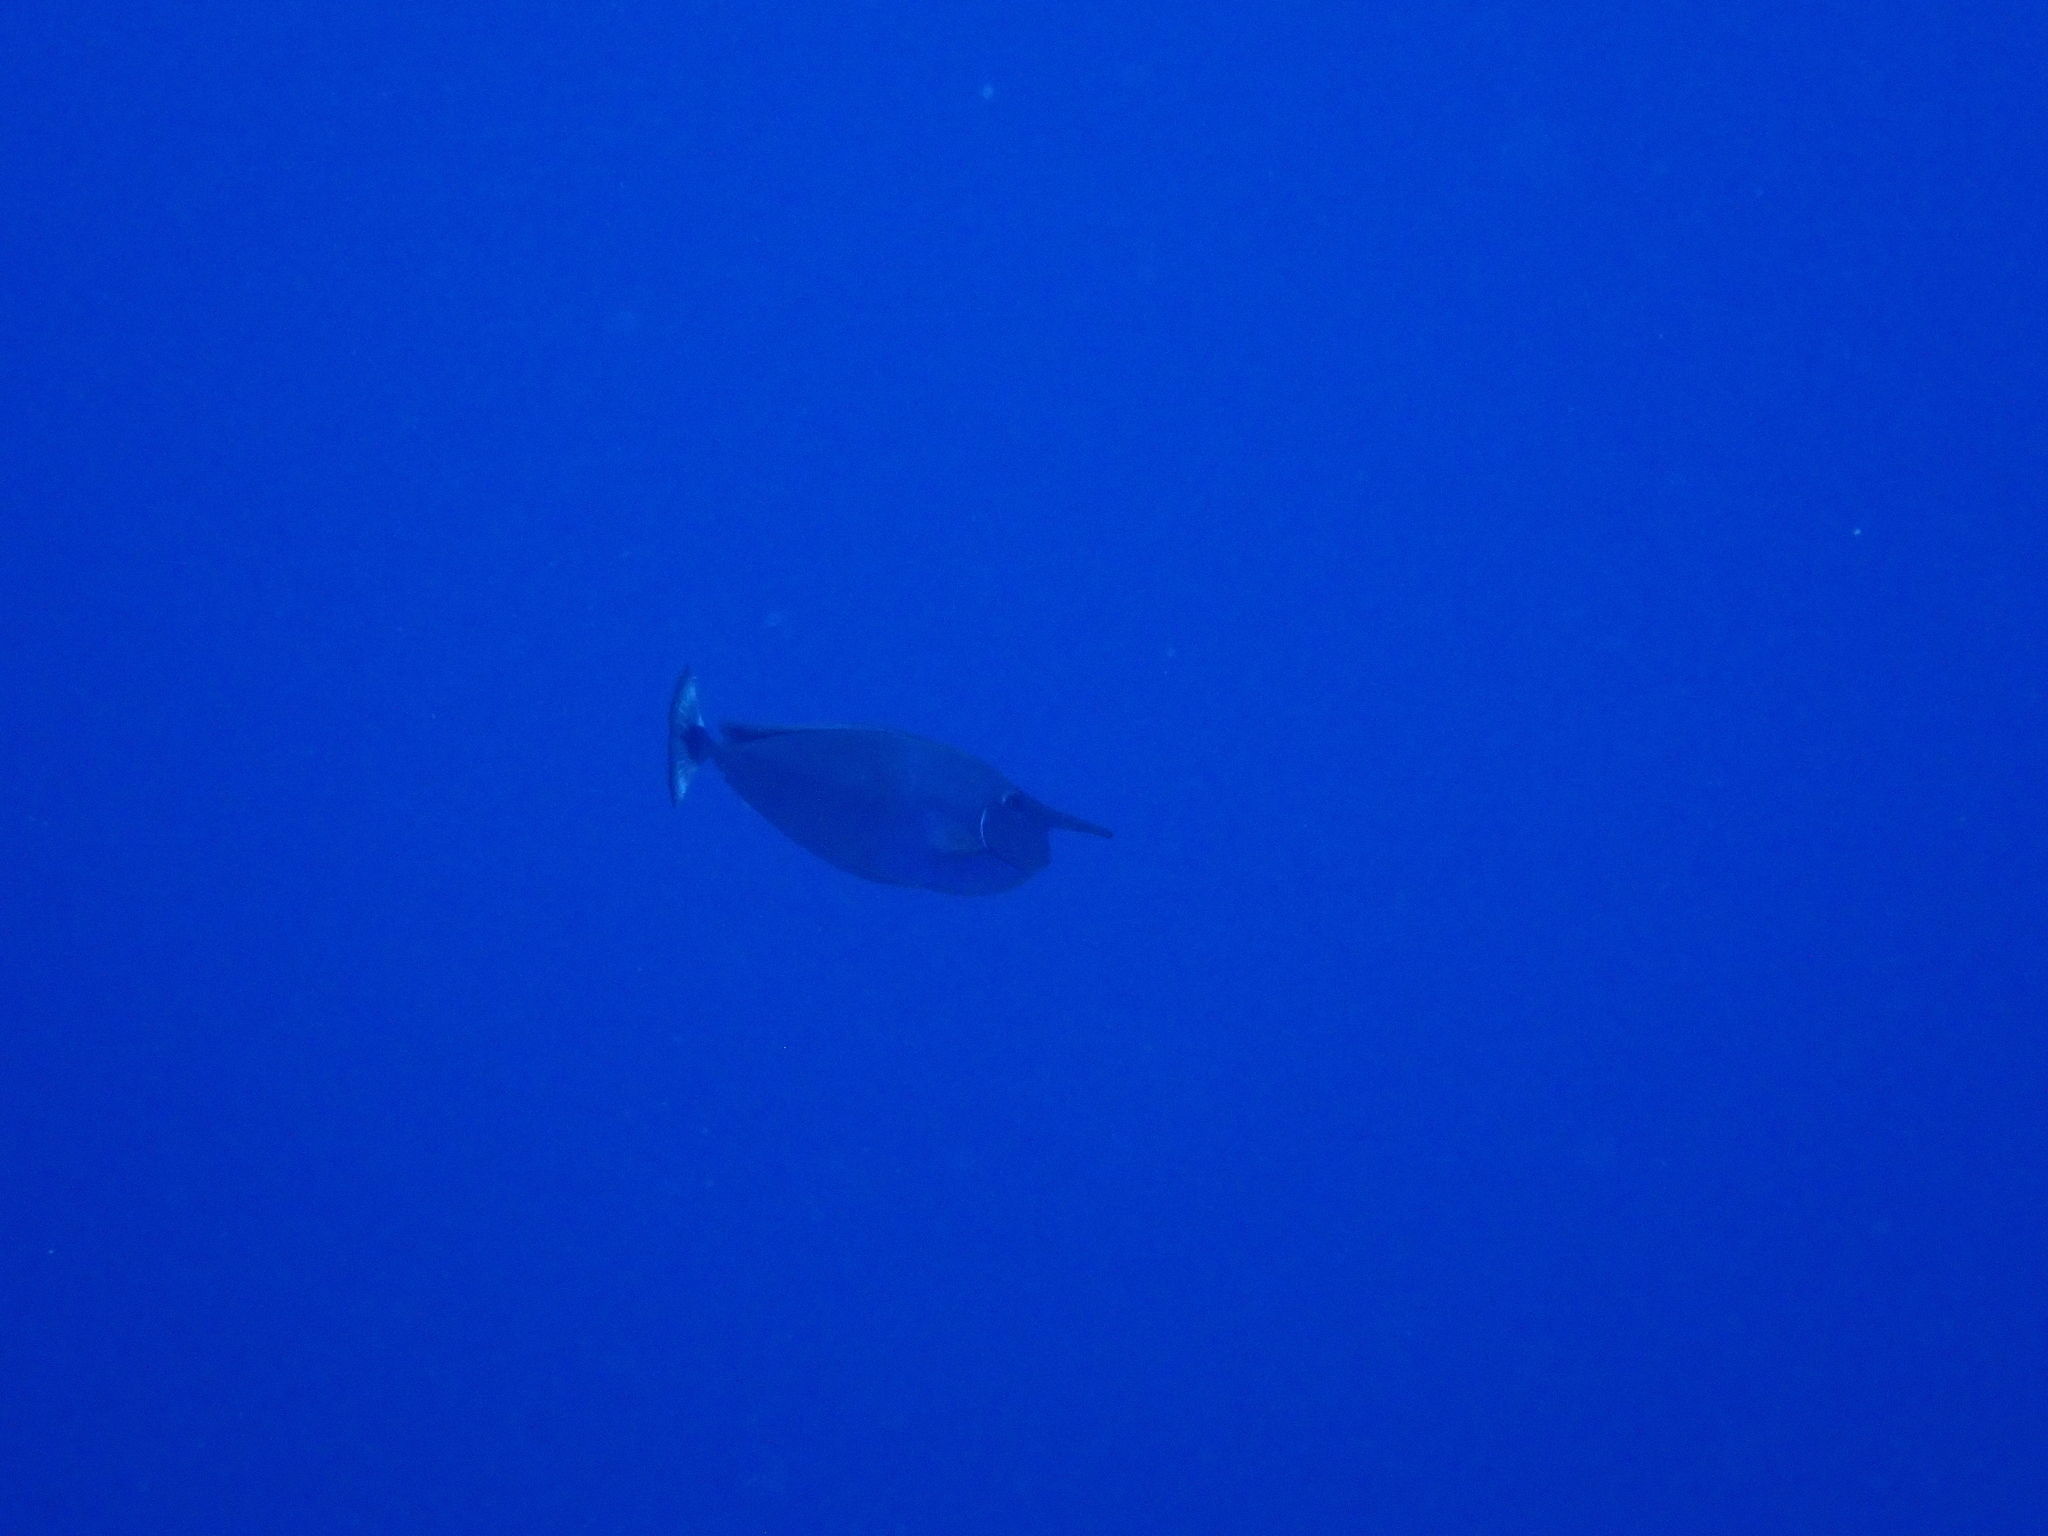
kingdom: Animalia
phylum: Chordata
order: Perciformes
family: Acanthuridae
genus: Naso
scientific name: Naso brevirostris
